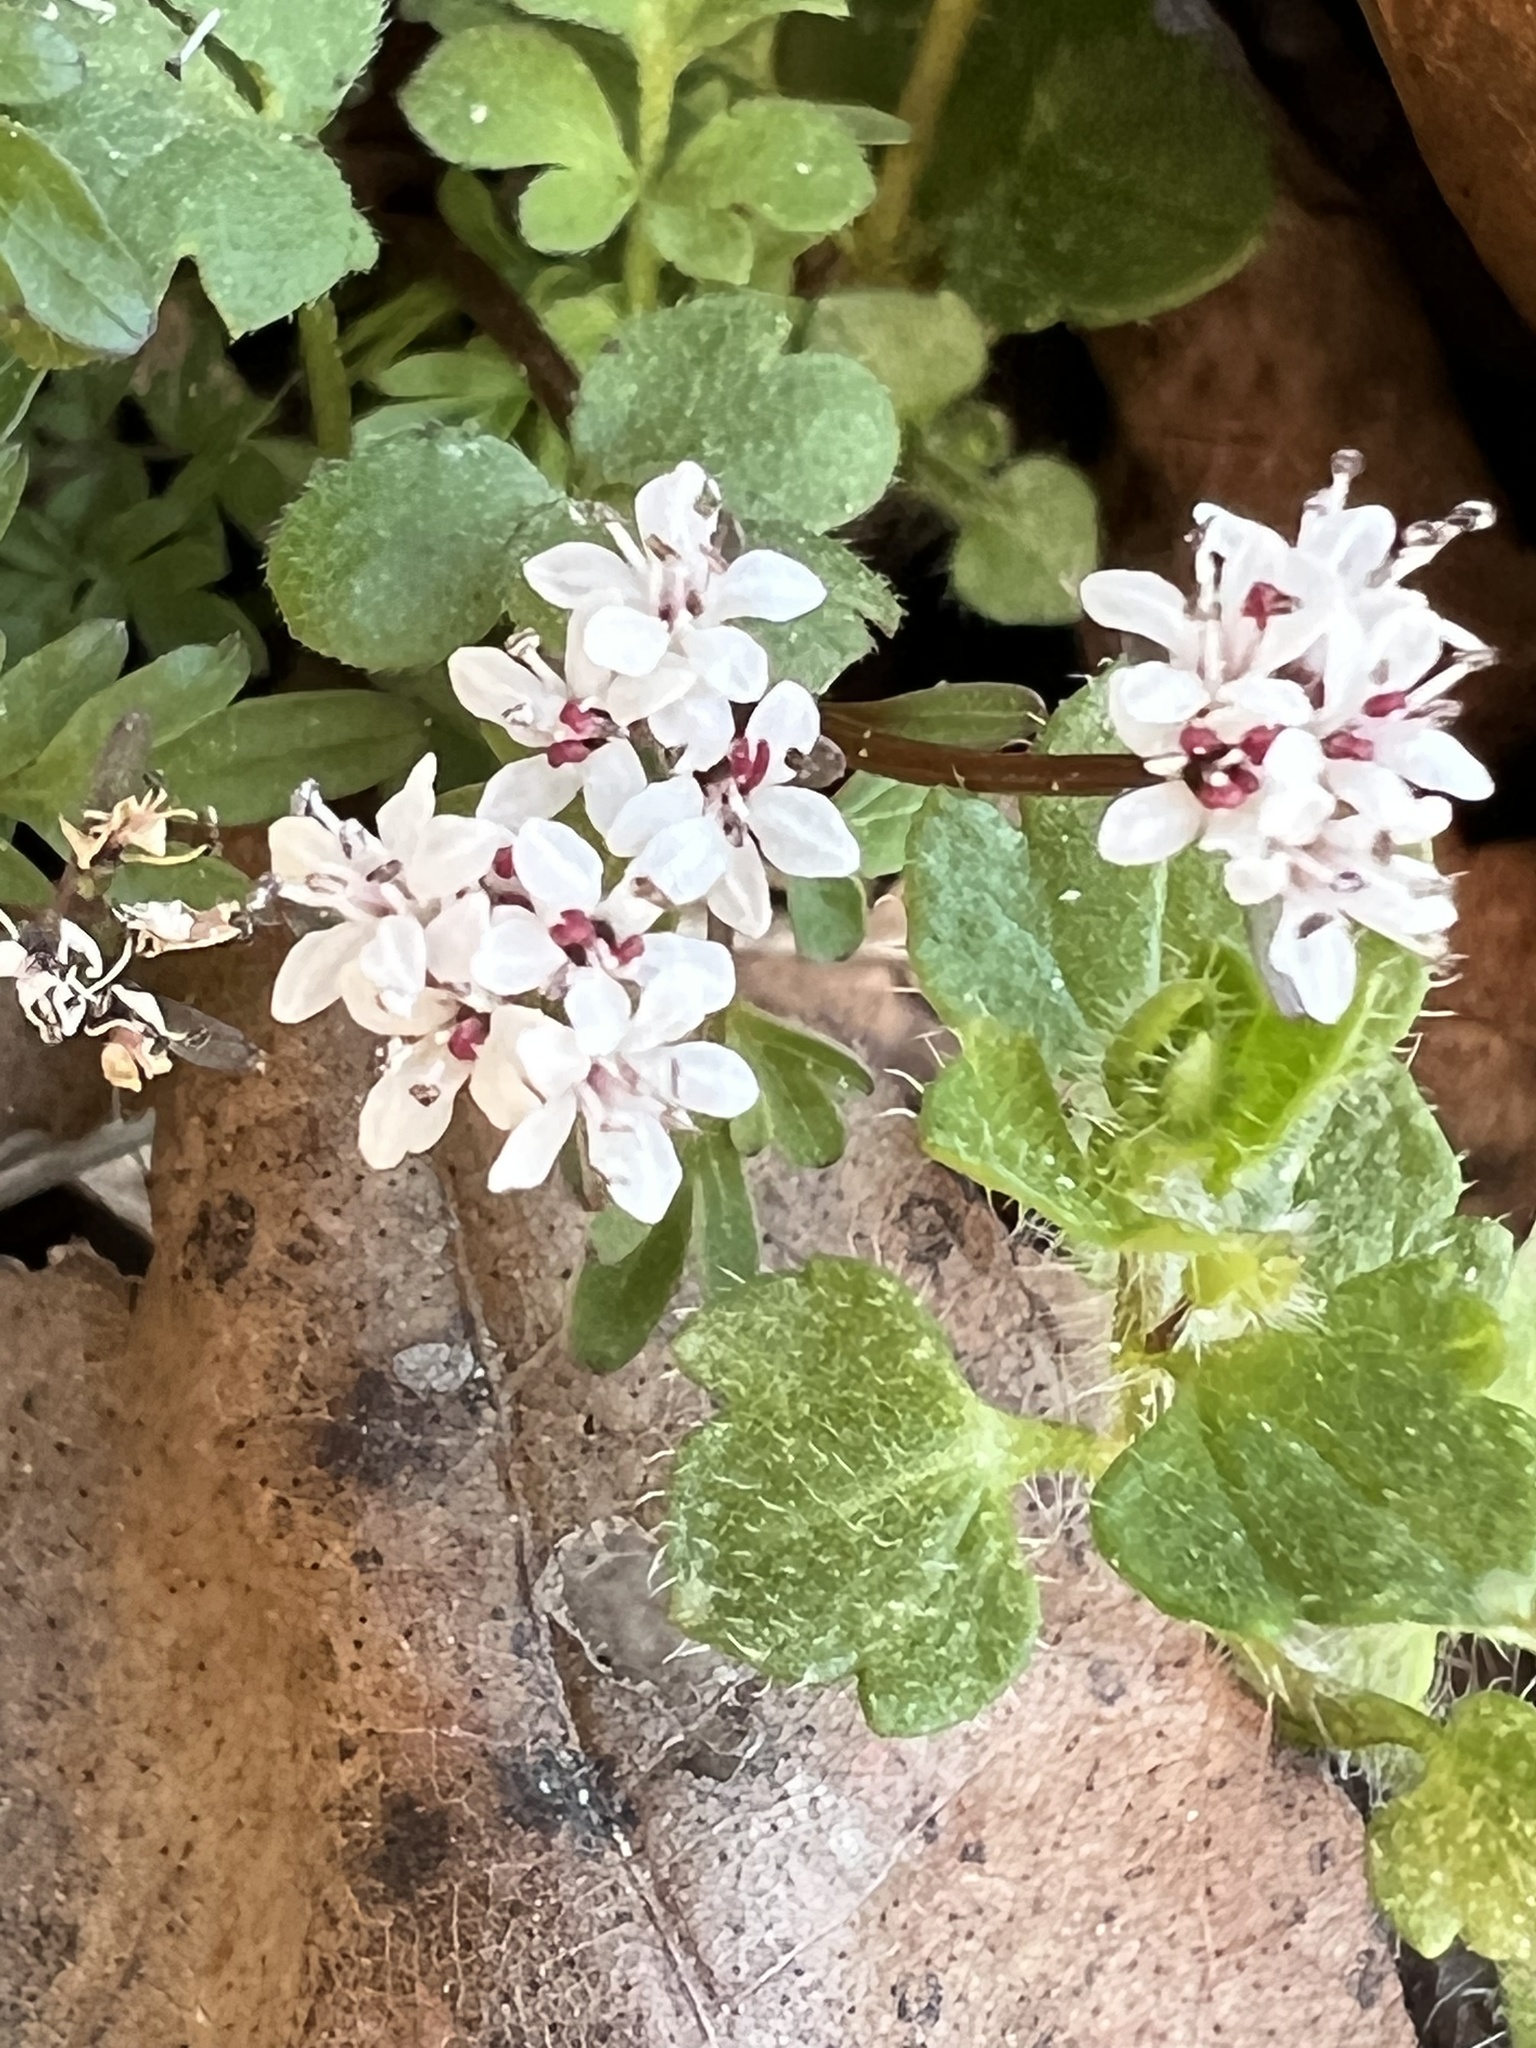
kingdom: Plantae
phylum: Tracheophyta
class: Magnoliopsida
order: Apiales
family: Apiaceae
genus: Erigenia
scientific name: Erigenia bulbosa
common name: Pepper-and-salt
